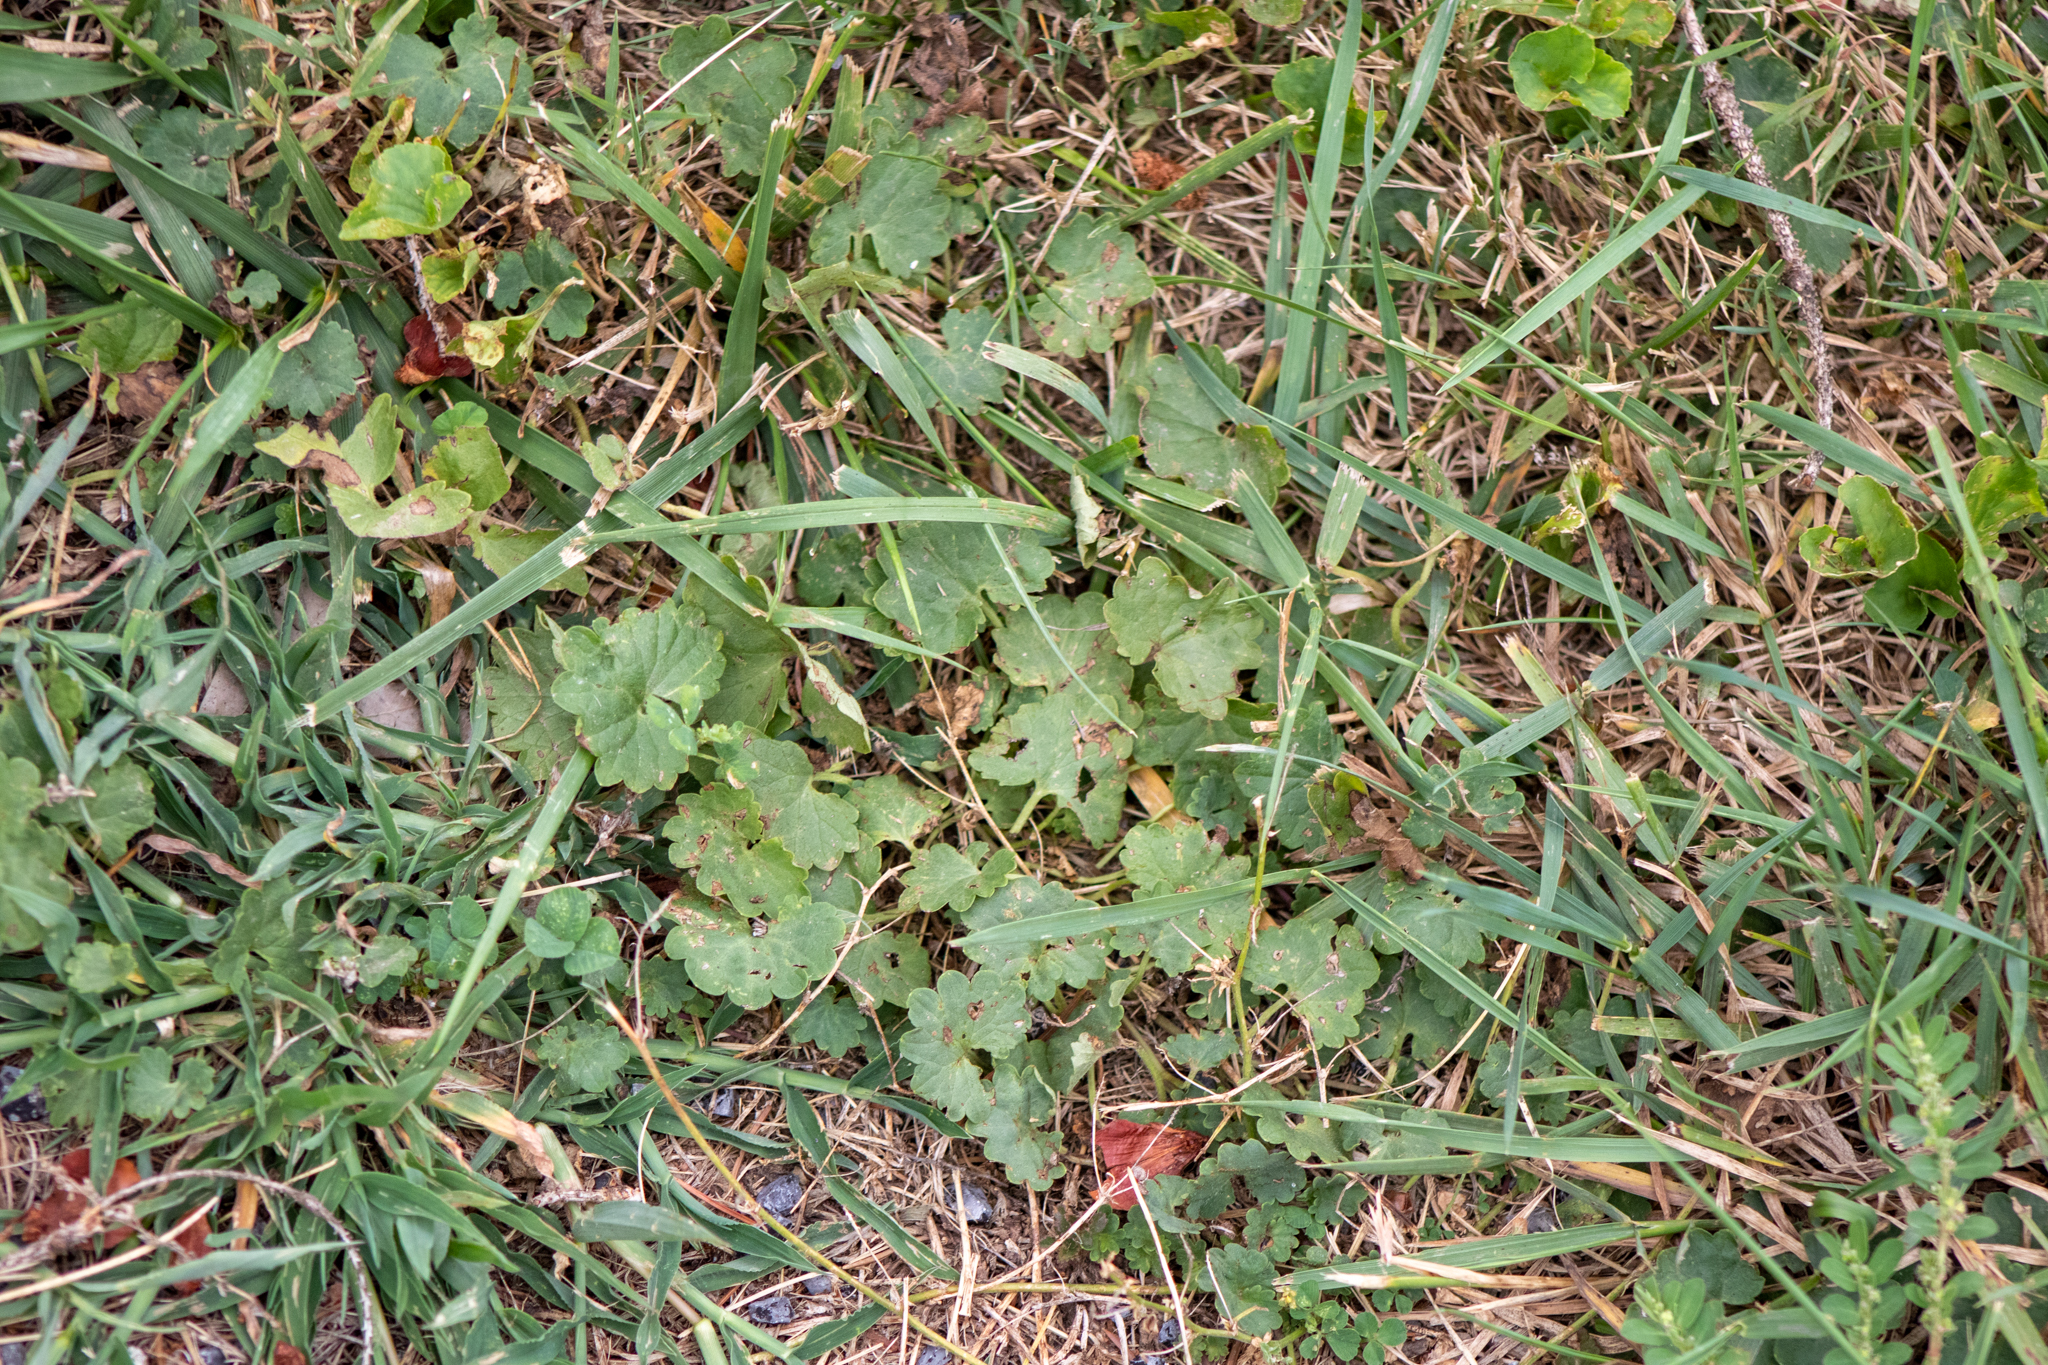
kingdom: Plantae
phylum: Tracheophyta
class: Magnoliopsida
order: Lamiales
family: Lamiaceae
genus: Glechoma
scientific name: Glechoma hederacea
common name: Ground ivy
